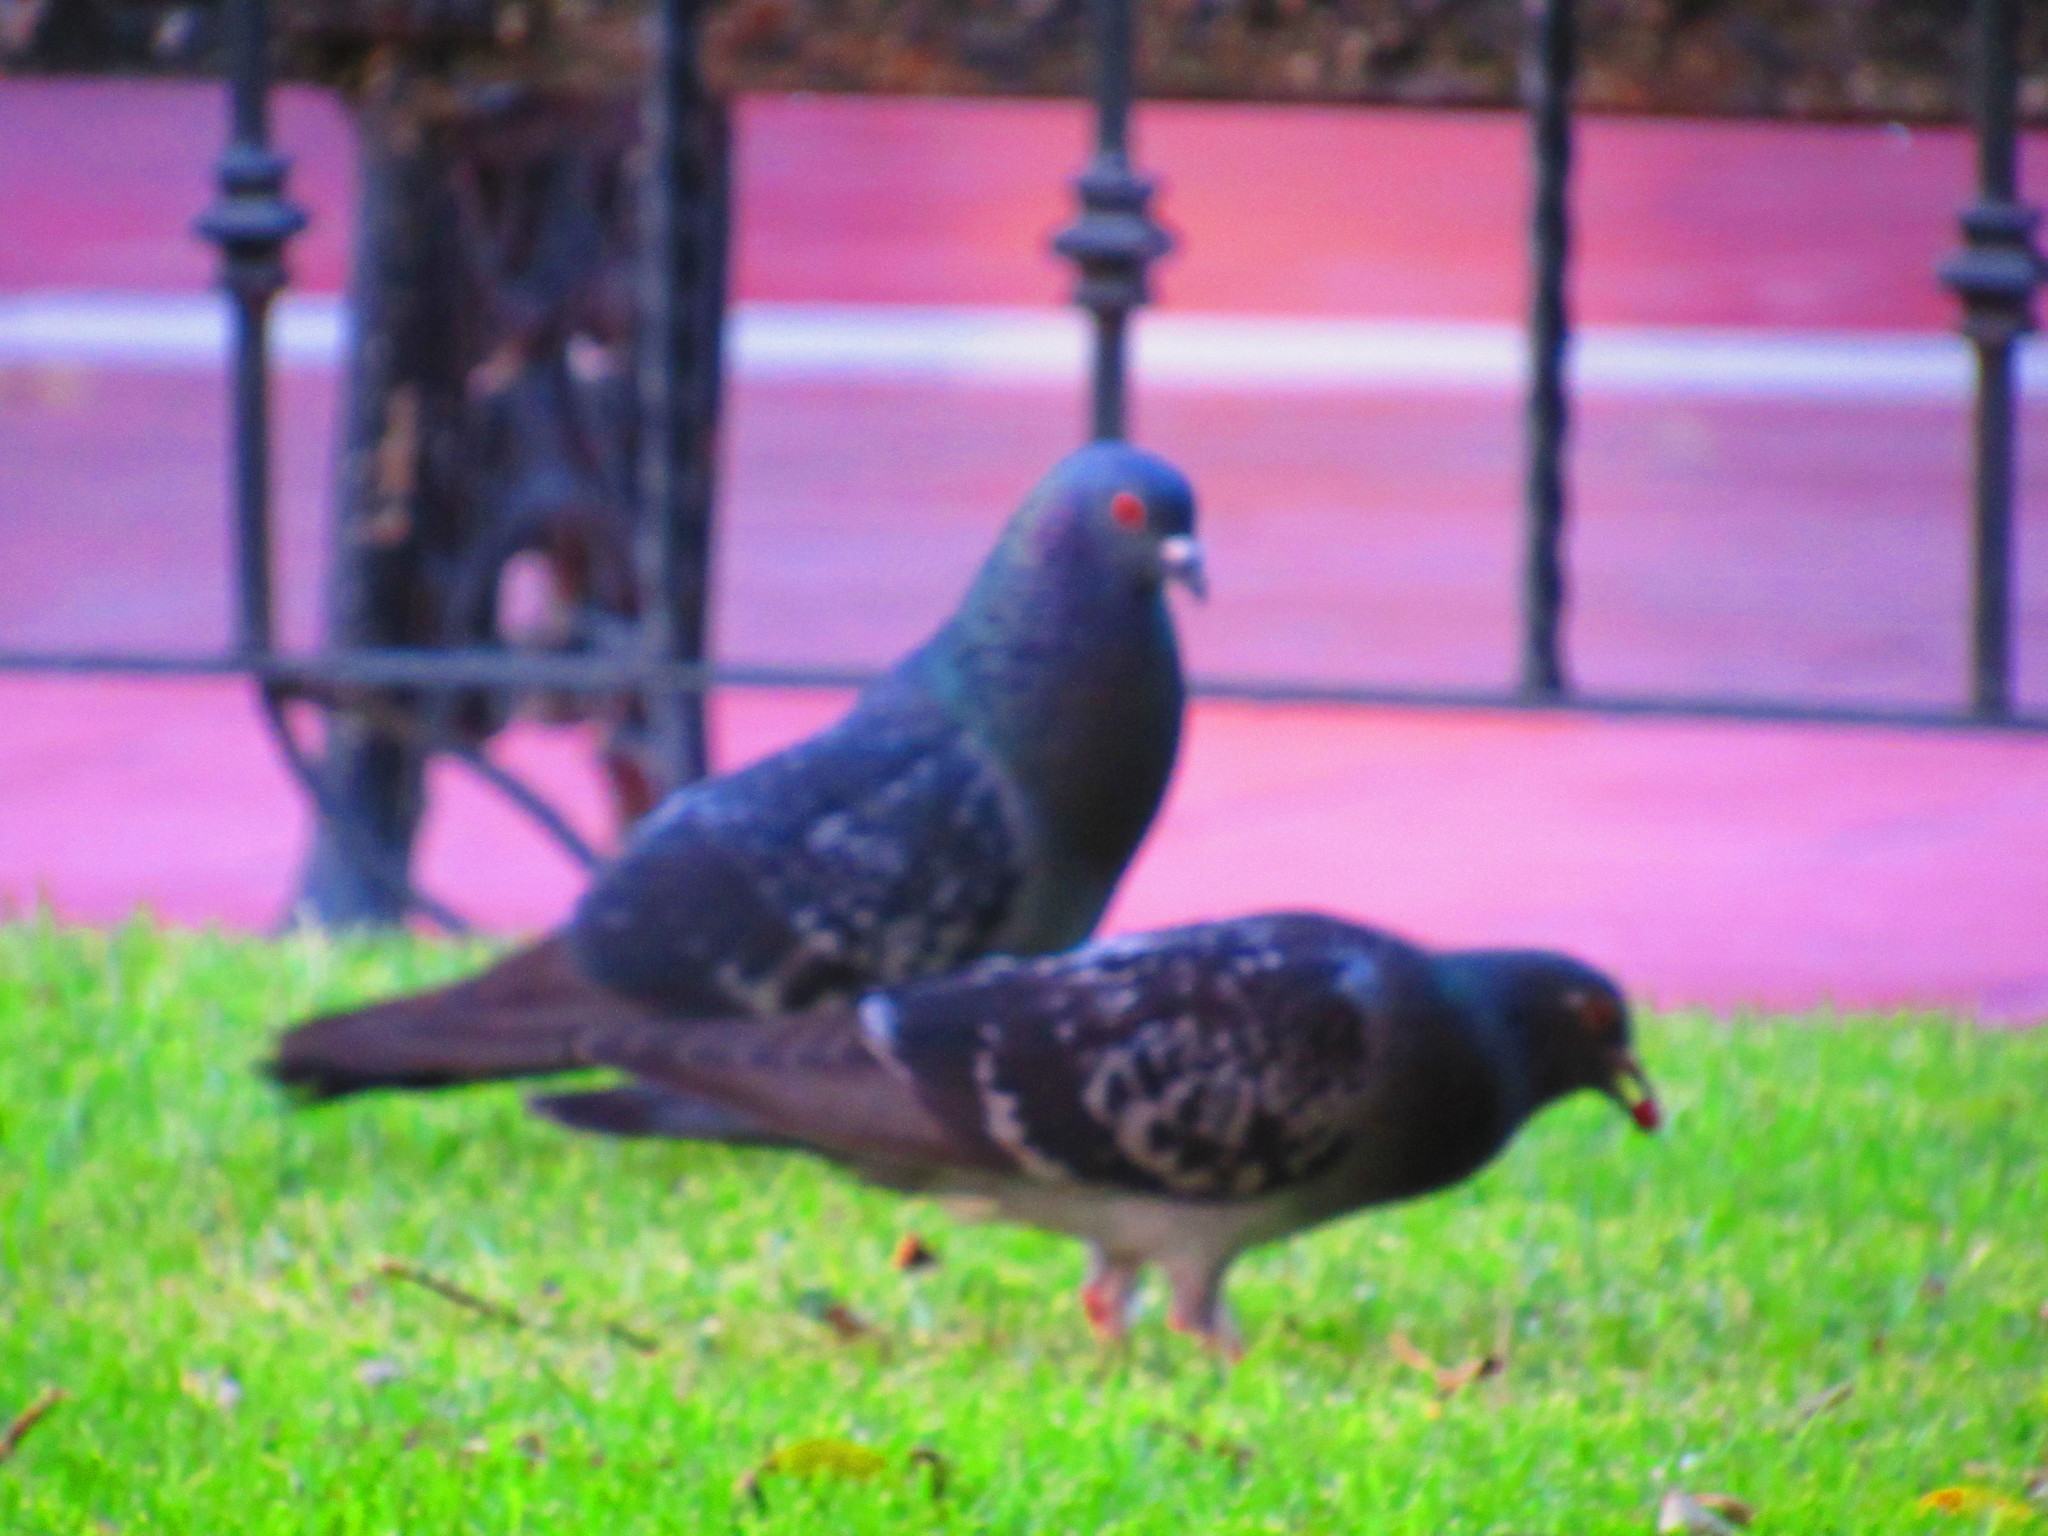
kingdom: Animalia
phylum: Chordata
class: Aves
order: Columbiformes
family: Columbidae
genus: Columba
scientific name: Columba livia
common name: Rock pigeon
